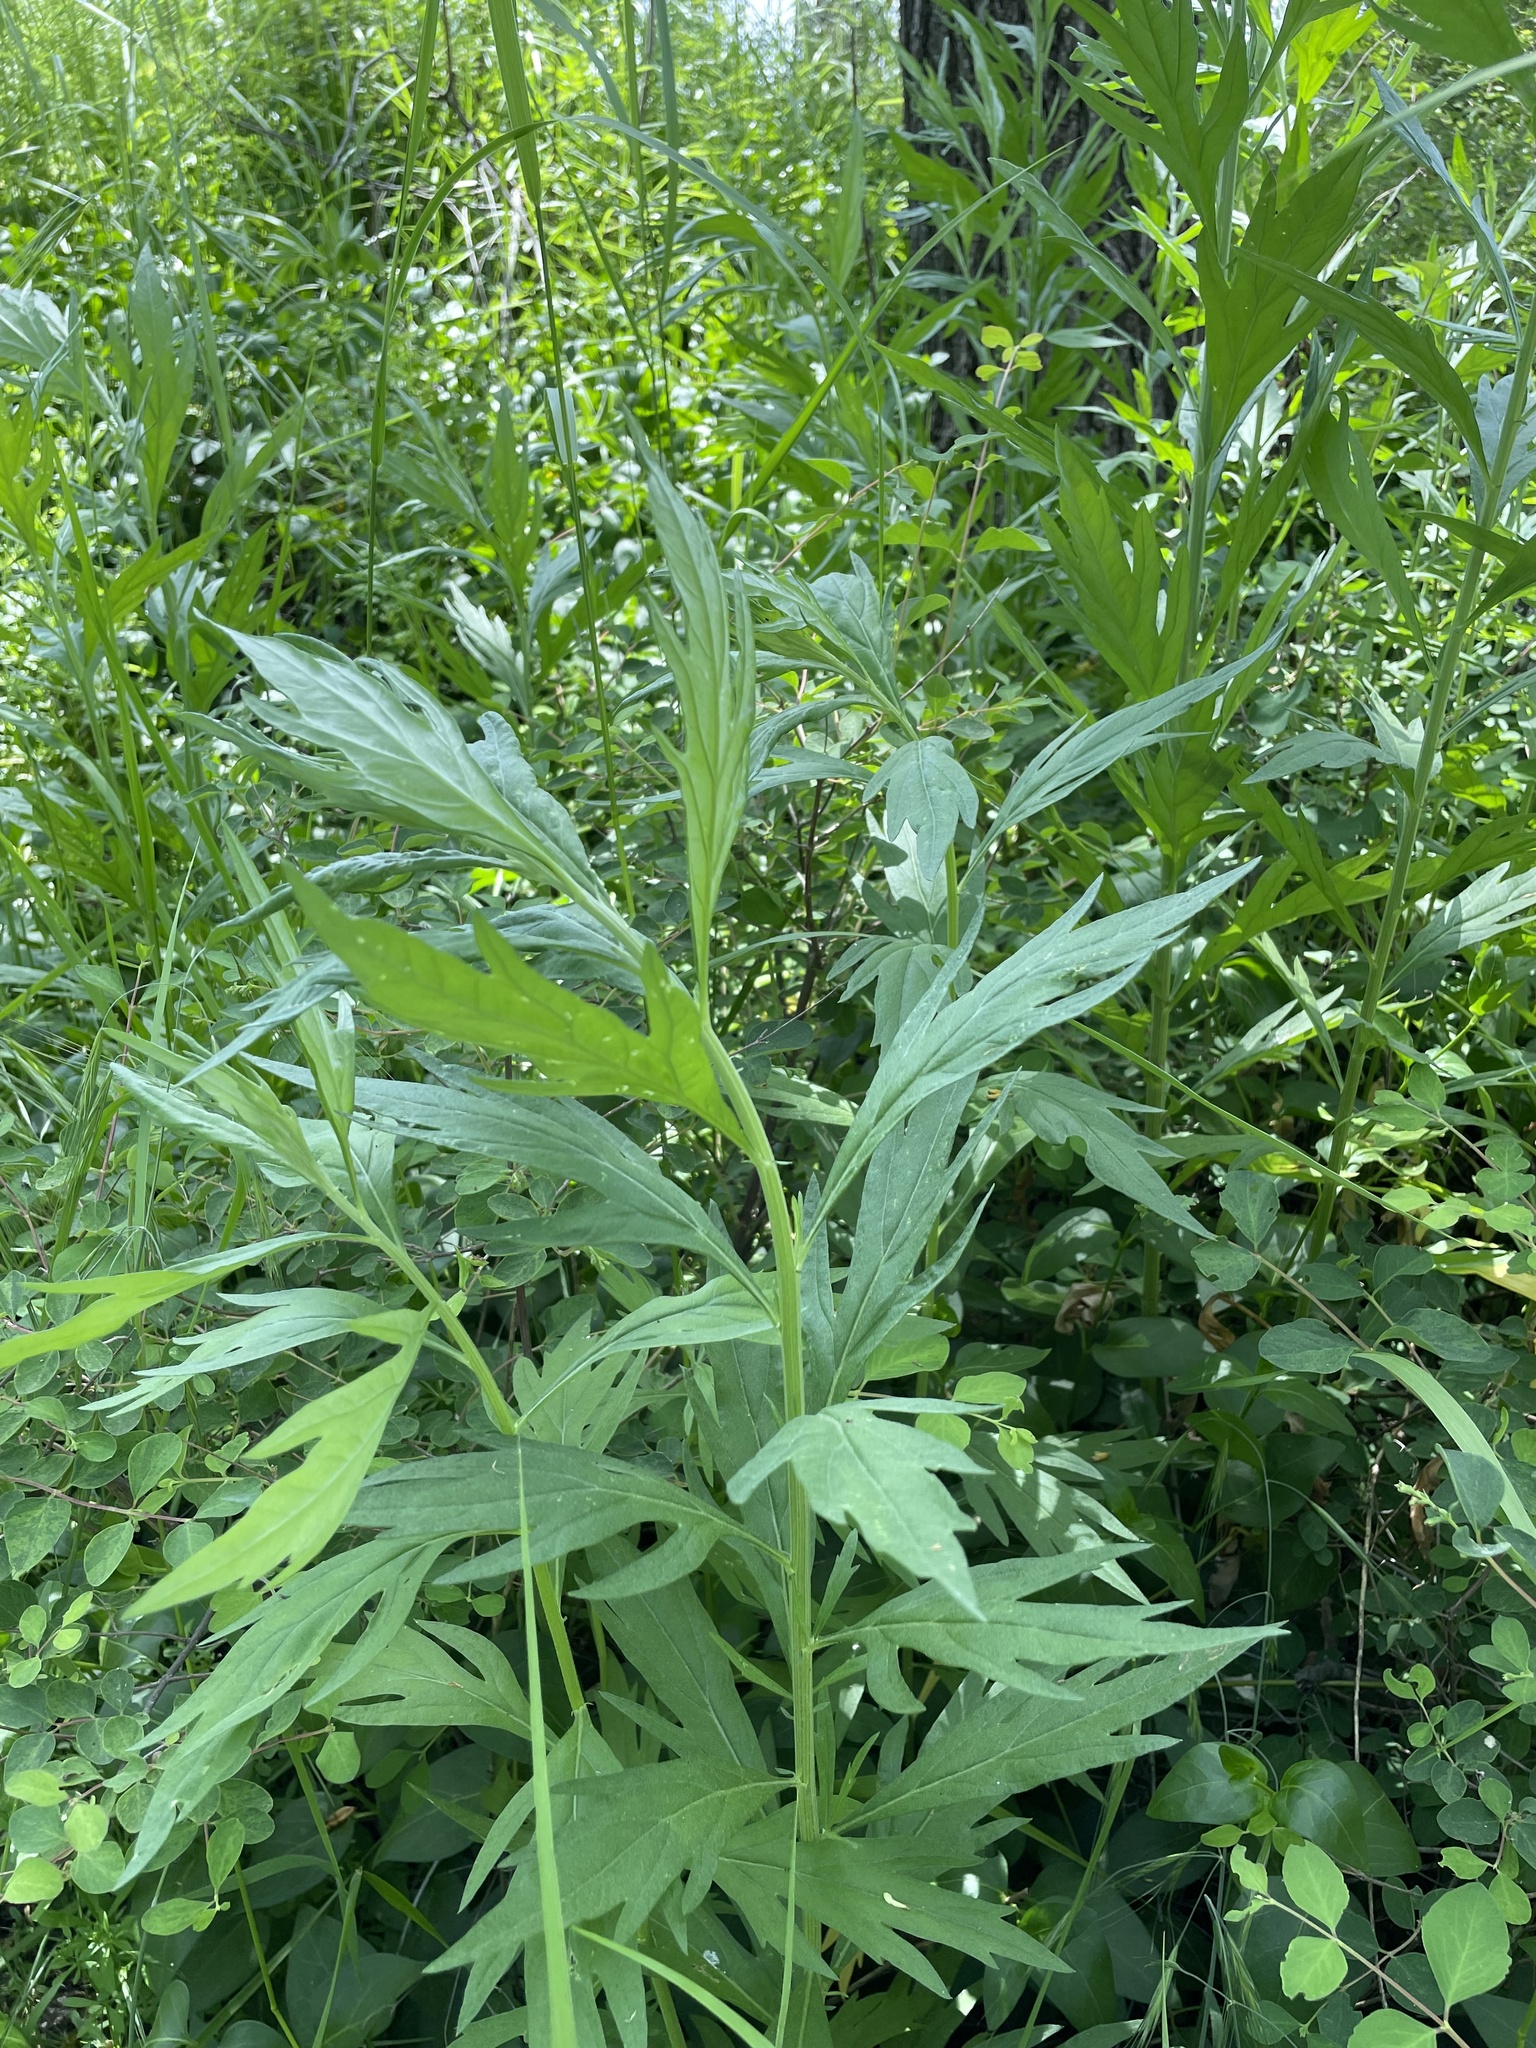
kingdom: Plantae
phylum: Tracheophyta
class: Magnoliopsida
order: Asterales
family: Asteraceae
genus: Artemisia
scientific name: Artemisia douglasiana
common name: Northwest mugwort
